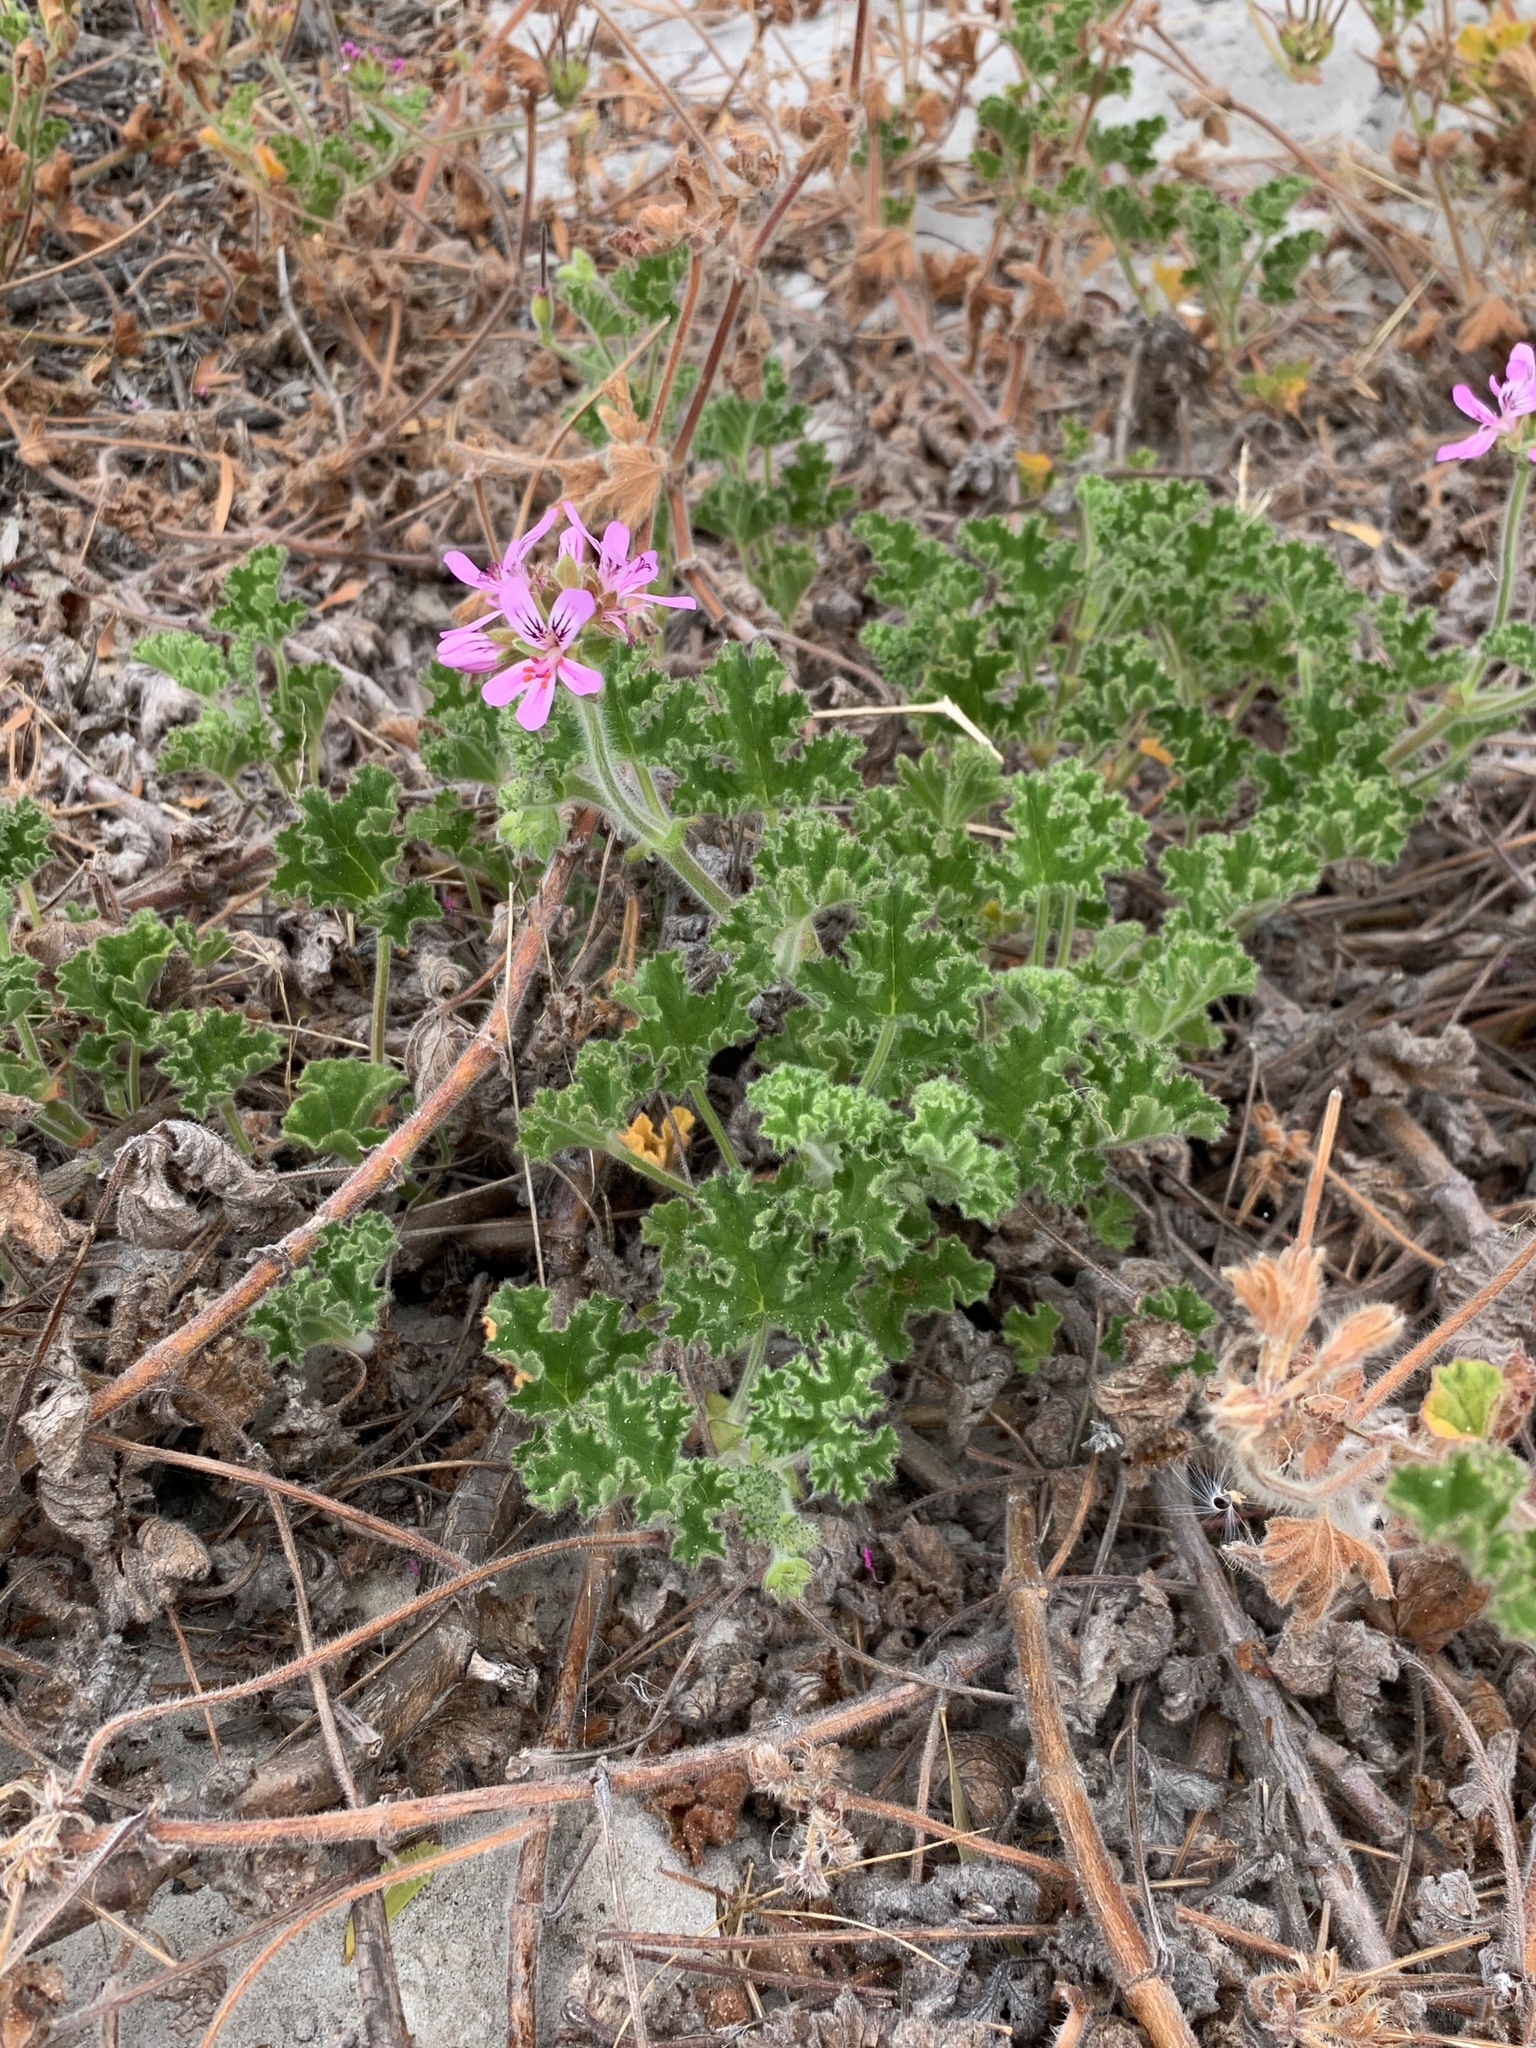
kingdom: Plantae
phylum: Tracheophyta
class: Magnoliopsida
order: Geraniales
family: Geraniaceae
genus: Pelargonium
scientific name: Pelargonium capitatum
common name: Rose scented geranium
